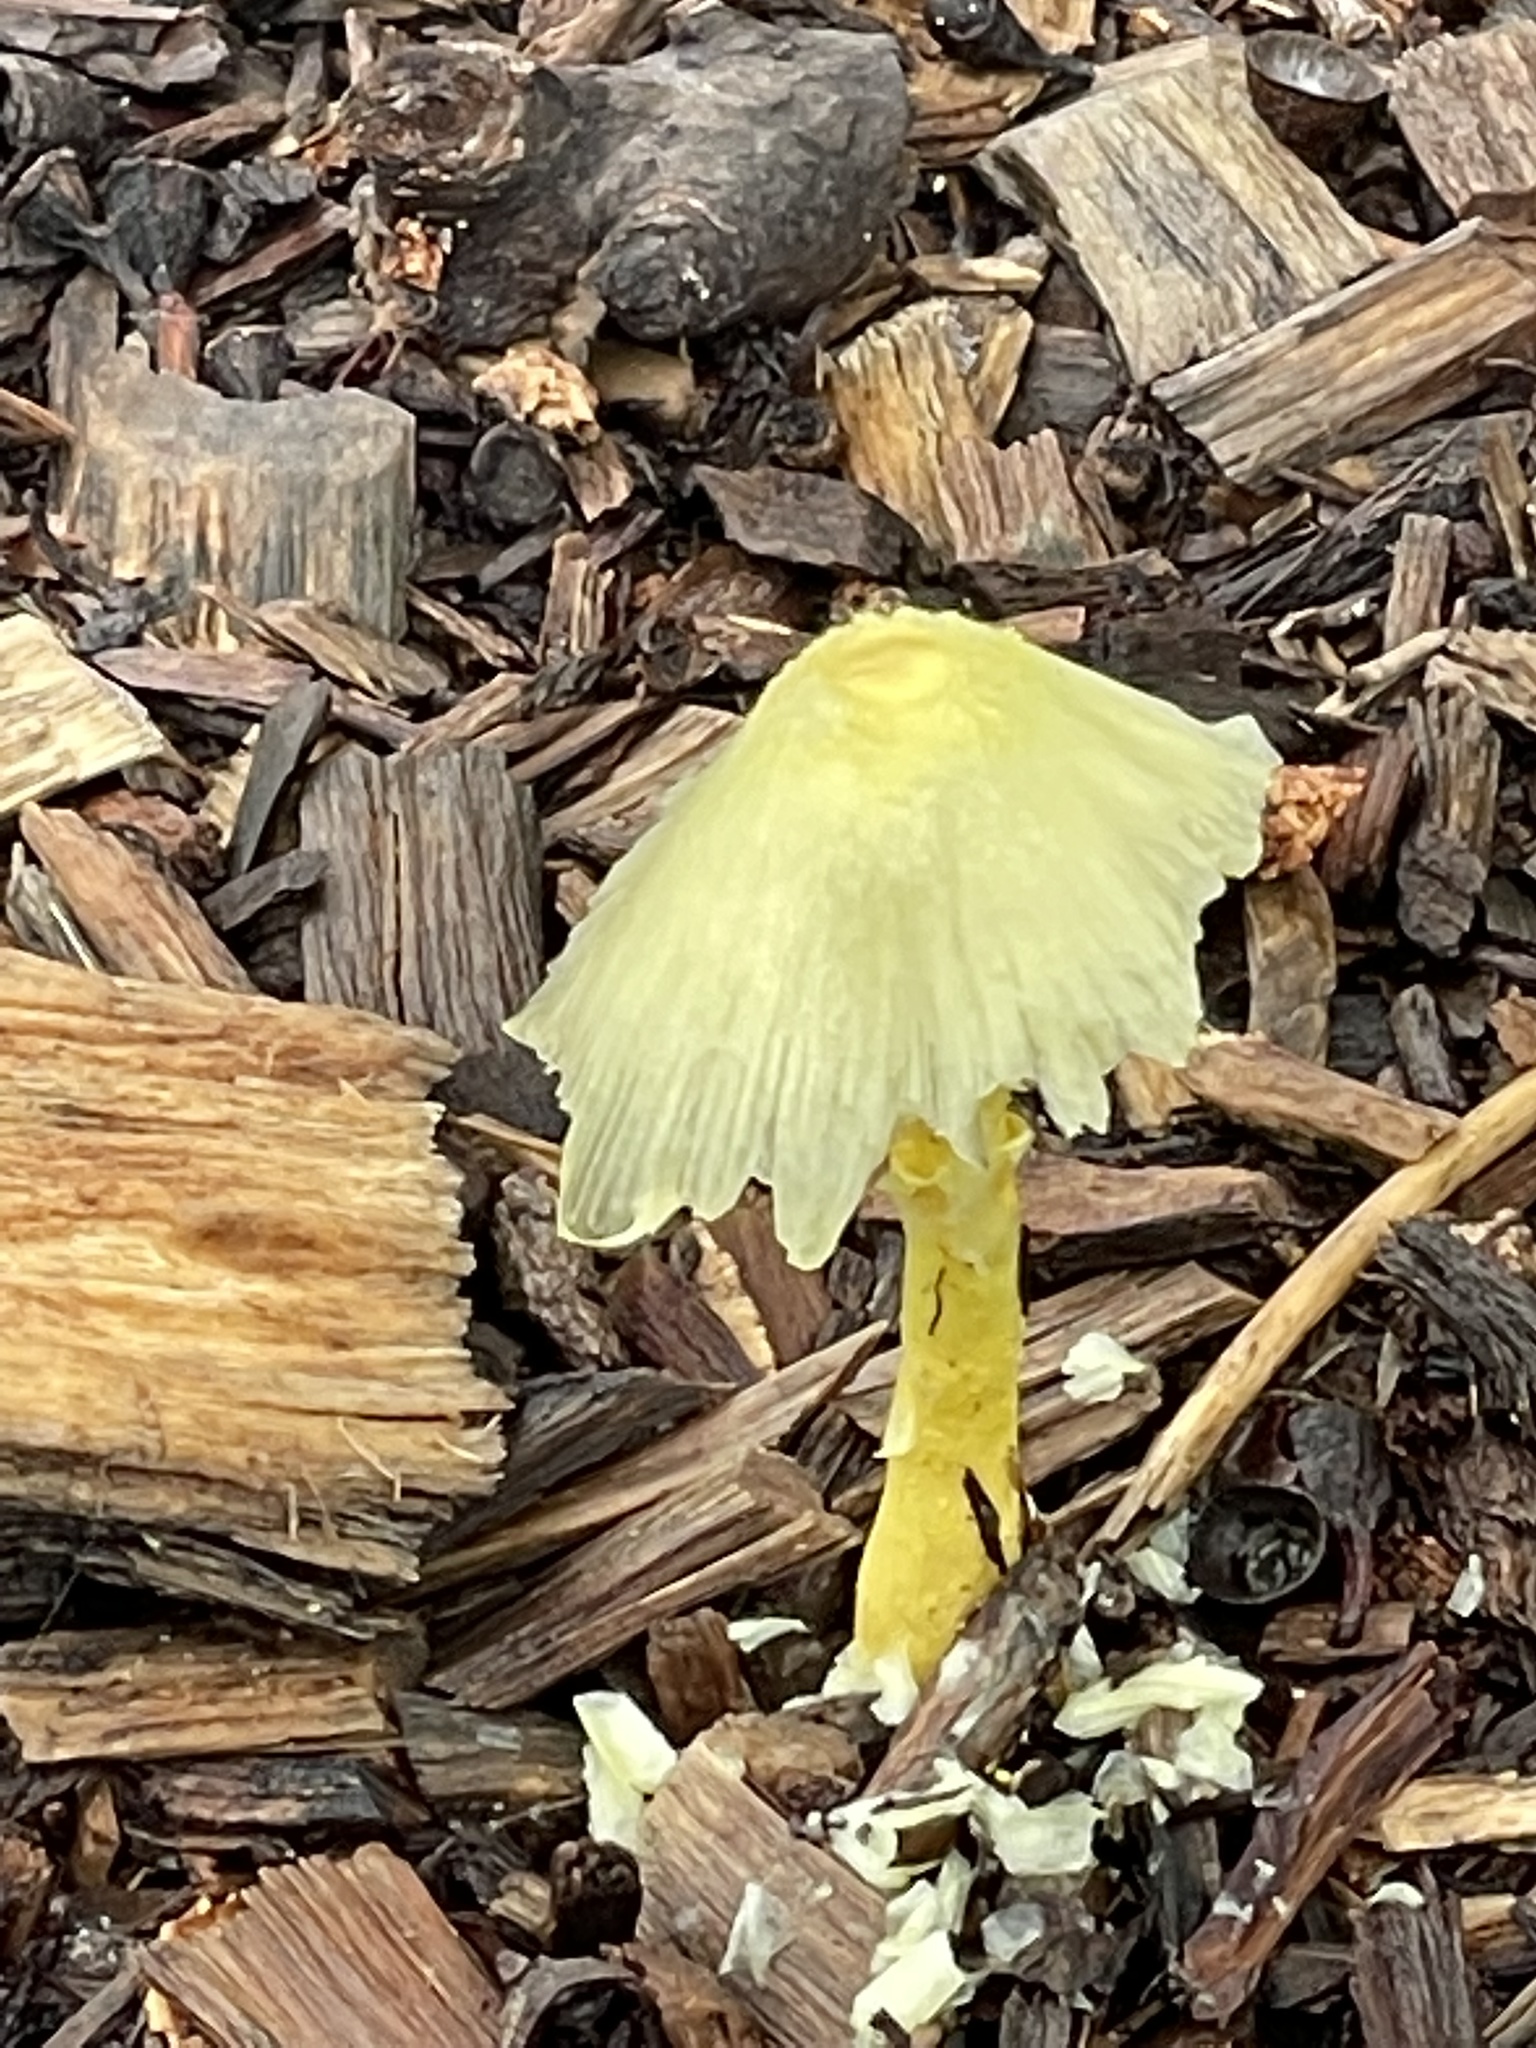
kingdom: Fungi
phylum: Basidiomycota
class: Agaricomycetes
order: Agaricales
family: Agaricaceae
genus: Leucocoprinus
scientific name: Leucocoprinus birnbaumii
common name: Plantpot dapperling
